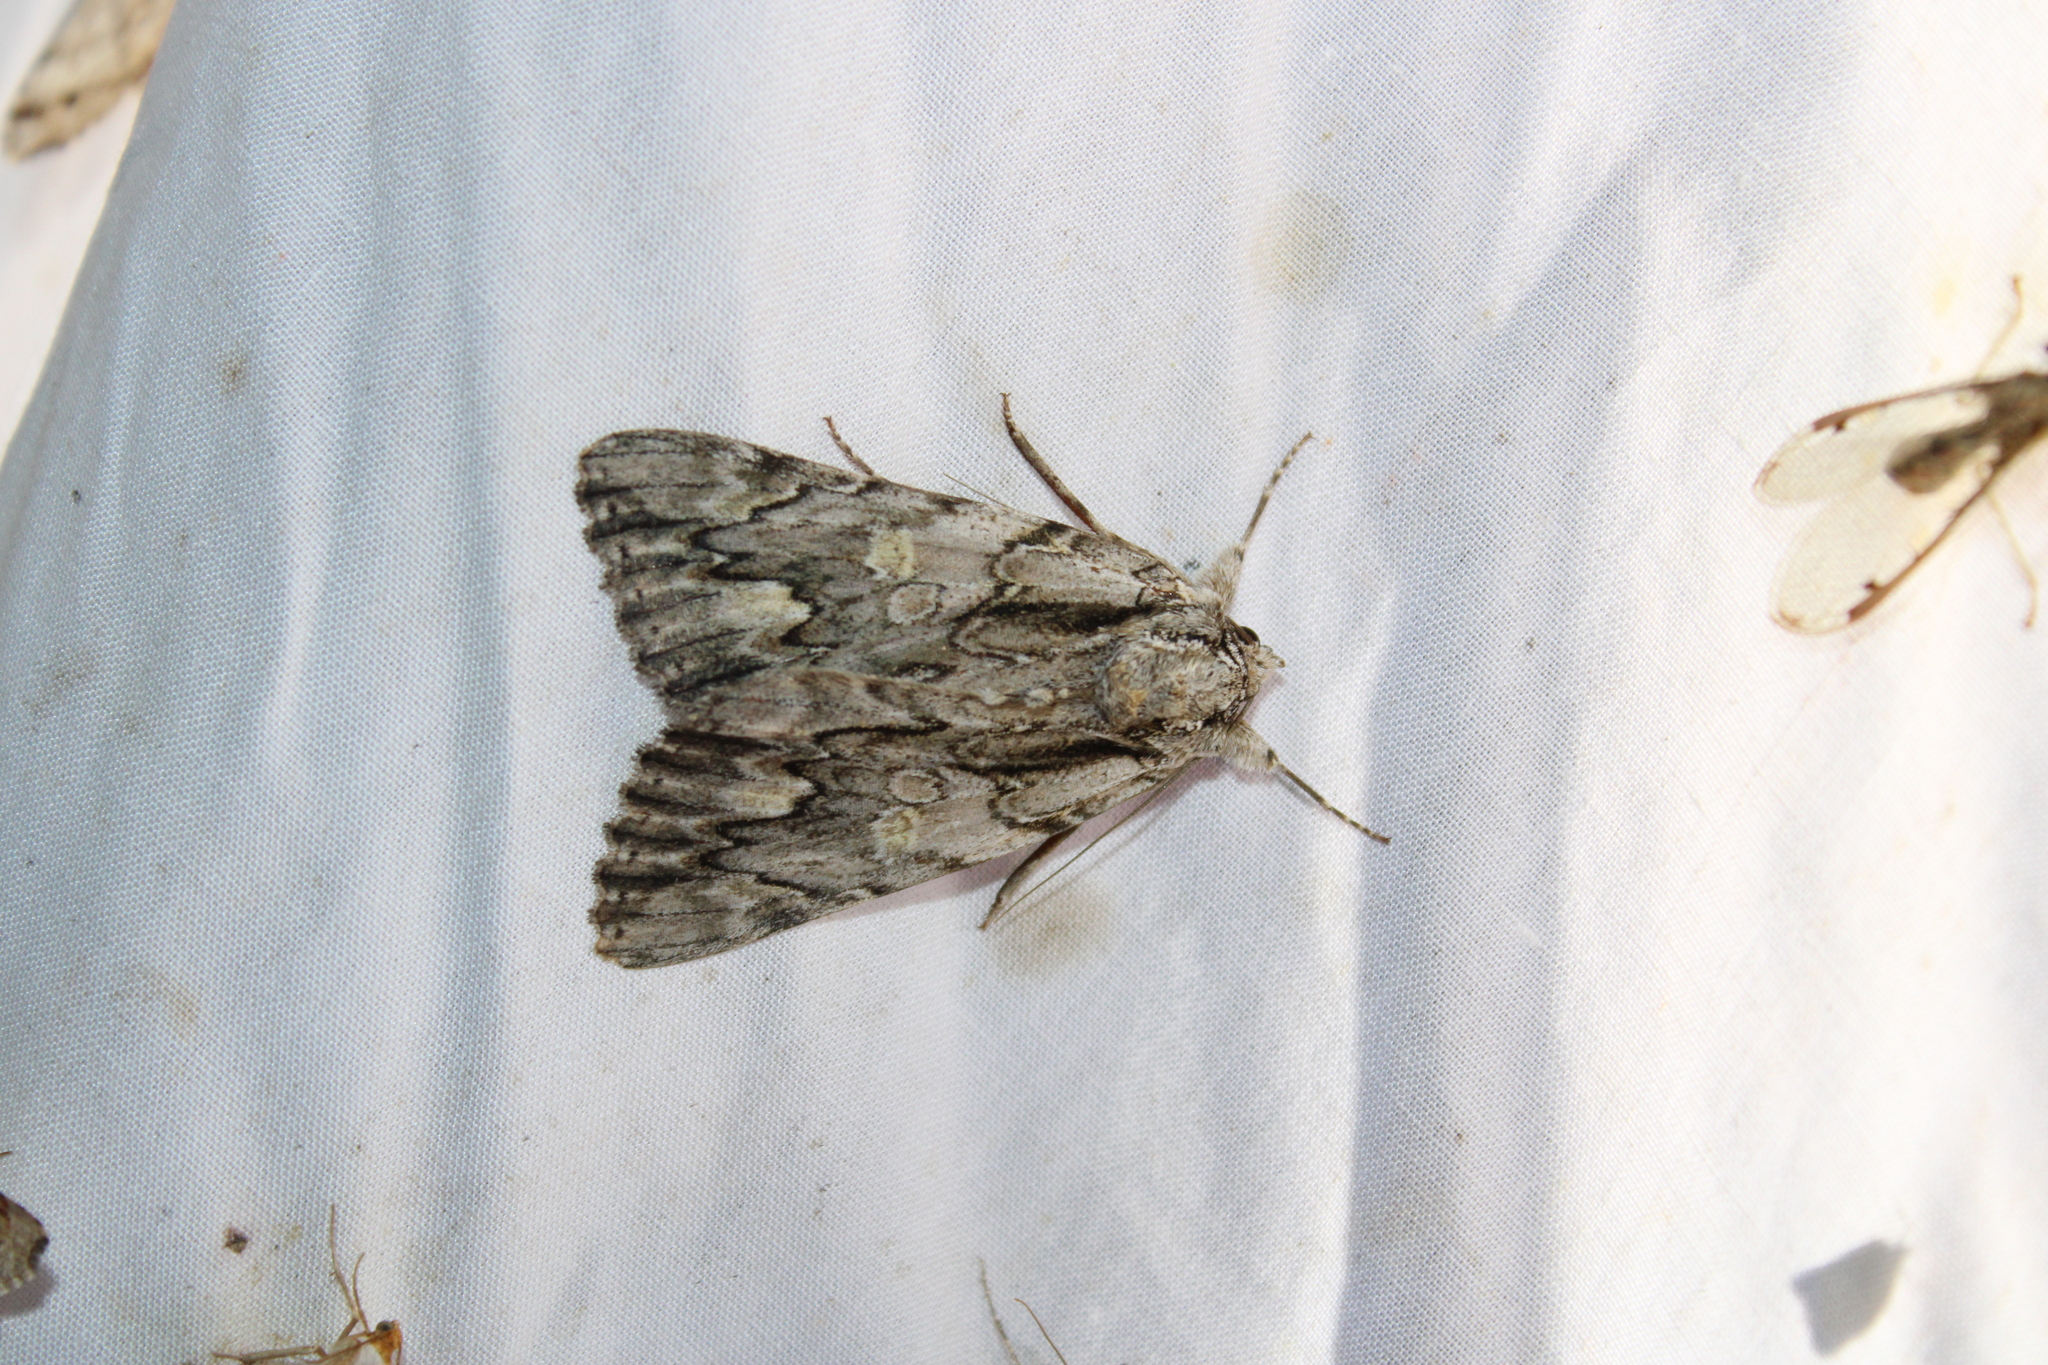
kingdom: Animalia
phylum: Arthropoda
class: Insecta
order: Lepidoptera
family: Erebidae
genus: Catocala
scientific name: Catocala coccinata
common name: Scarlet underwing
